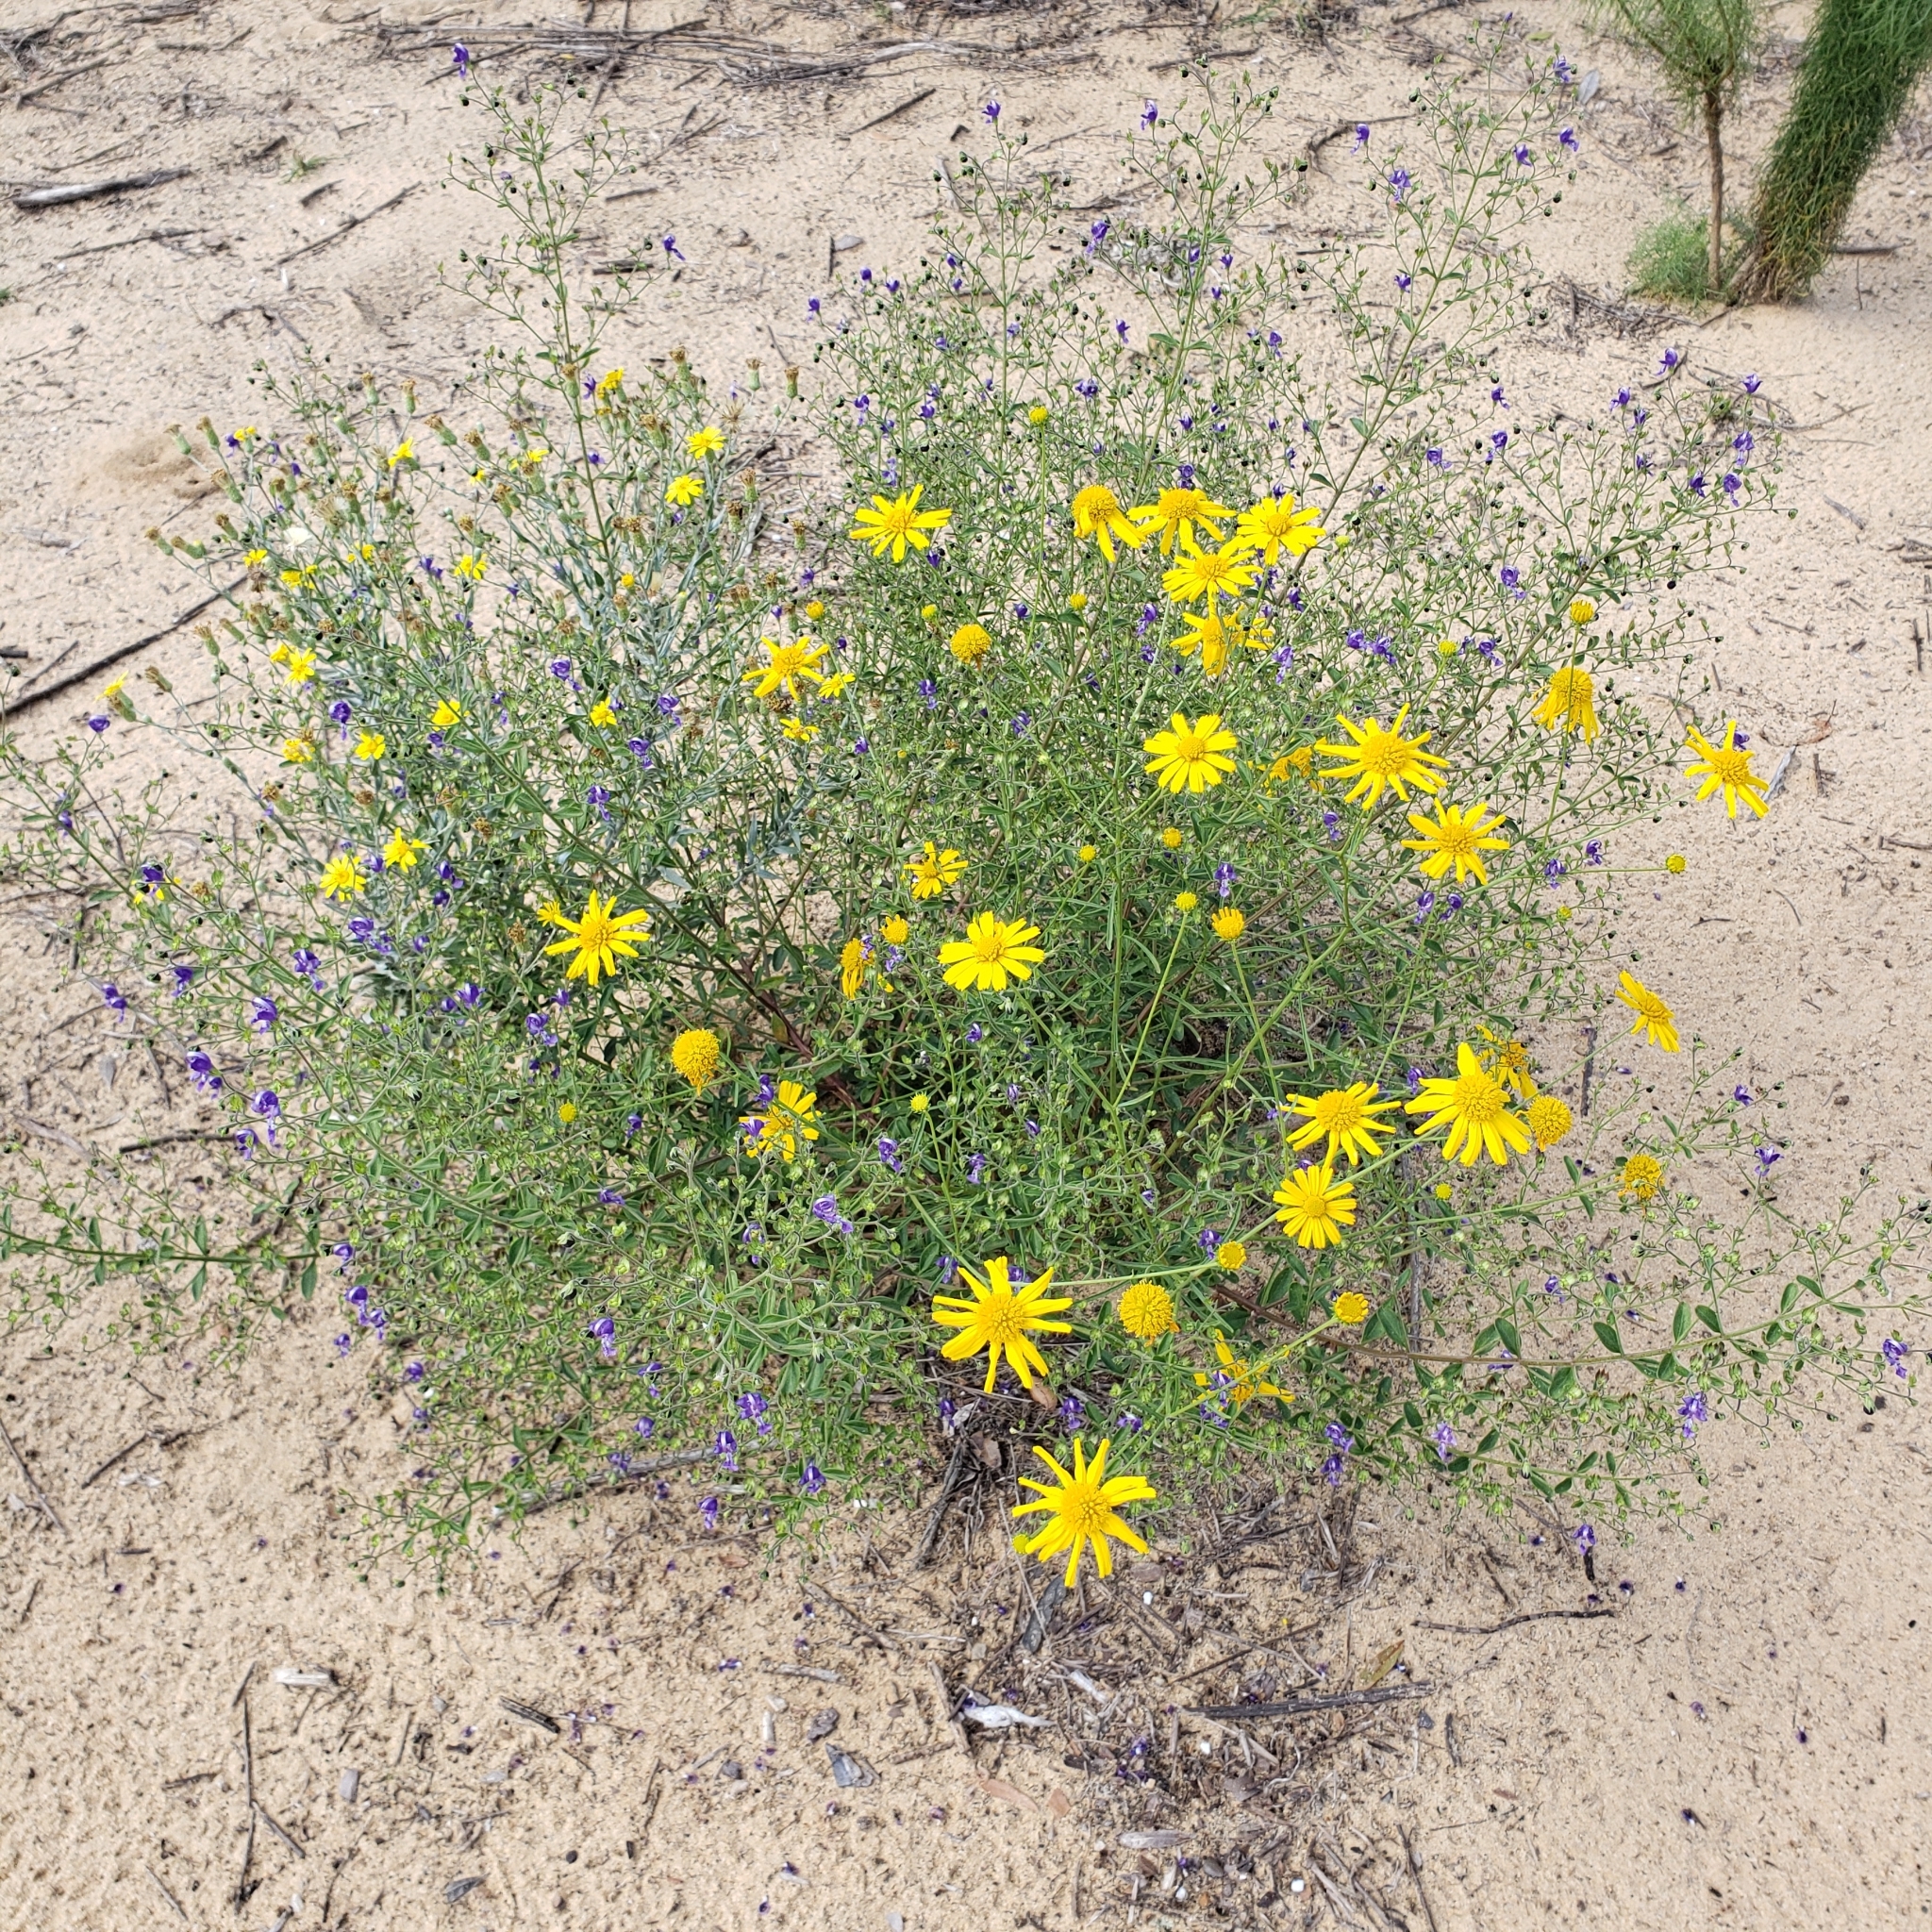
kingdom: Plantae
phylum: Tracheophyta
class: Magnoliopsida
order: Asterales
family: Asteraceae
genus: Balduina
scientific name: Balduina angustifolia
